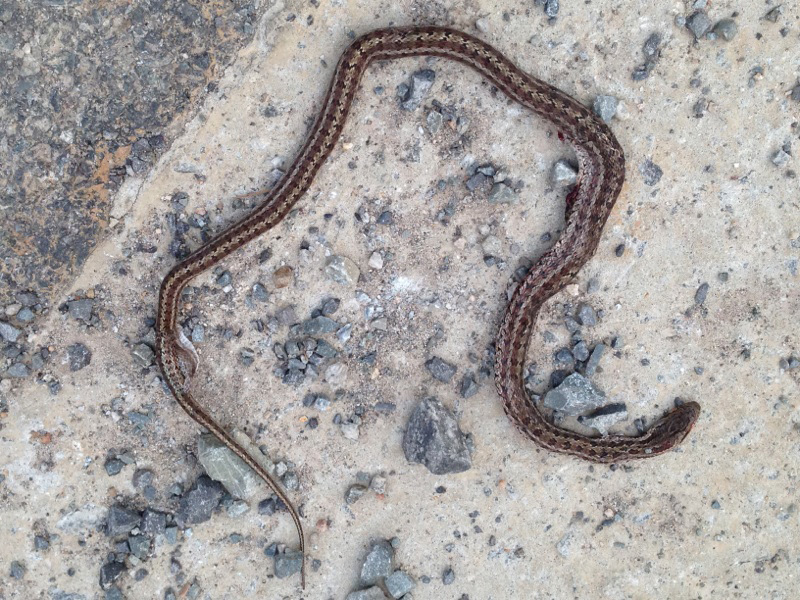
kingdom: Animalia
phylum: Chordata
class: Squamata
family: Colubridae
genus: Elaphe
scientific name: Elaphe dione
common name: Dione ratsnake
